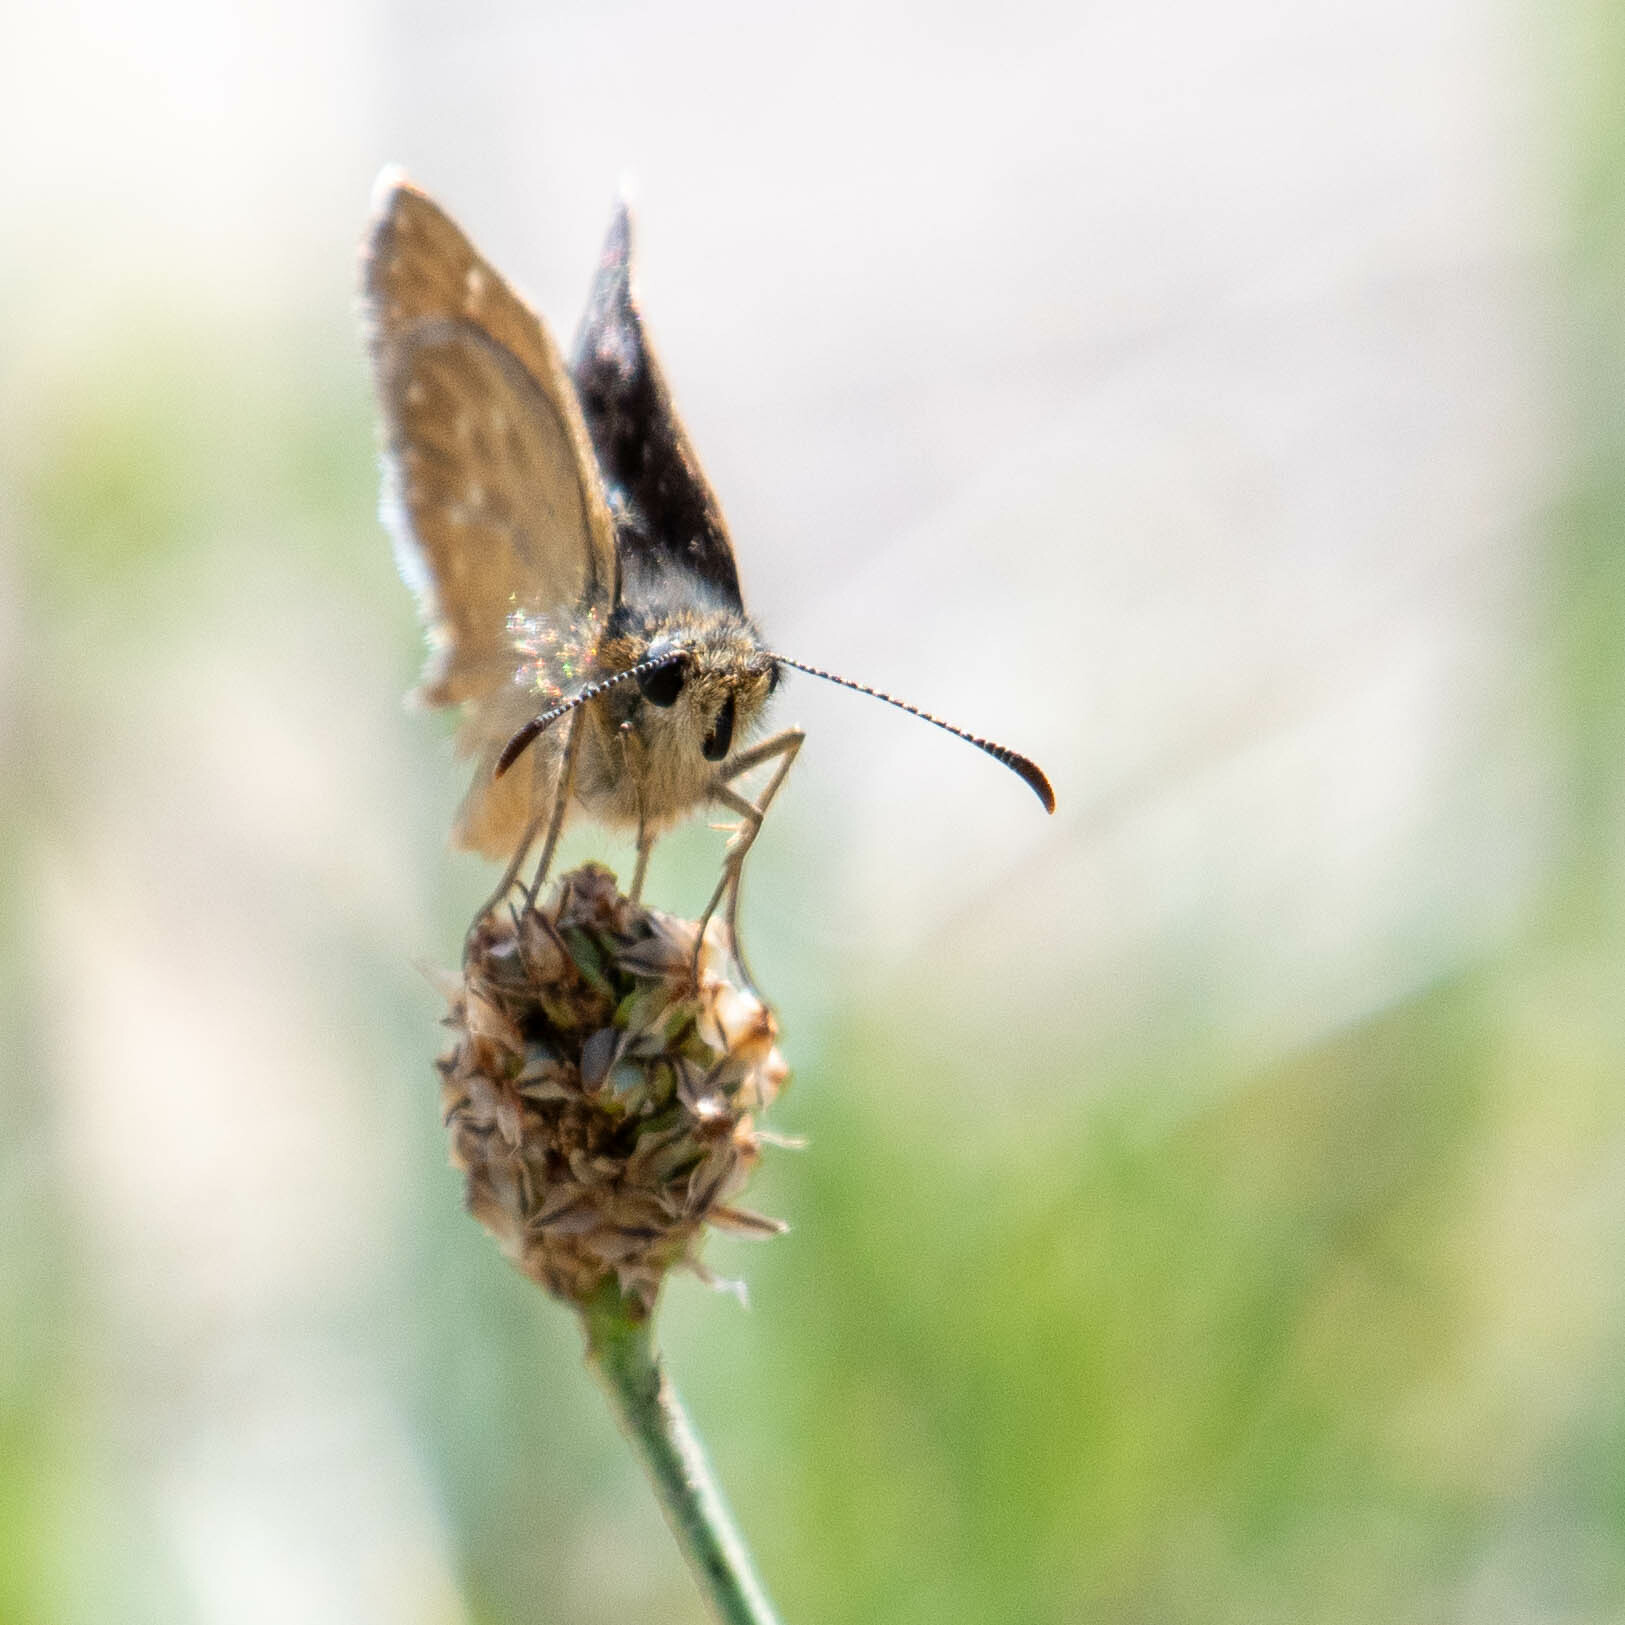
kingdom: Animalia
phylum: Arthropoda
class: Insecta
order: Lepidoptera
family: Hesperiidae
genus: Erynnis
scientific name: Erynnis tages
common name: Dingy skipper
